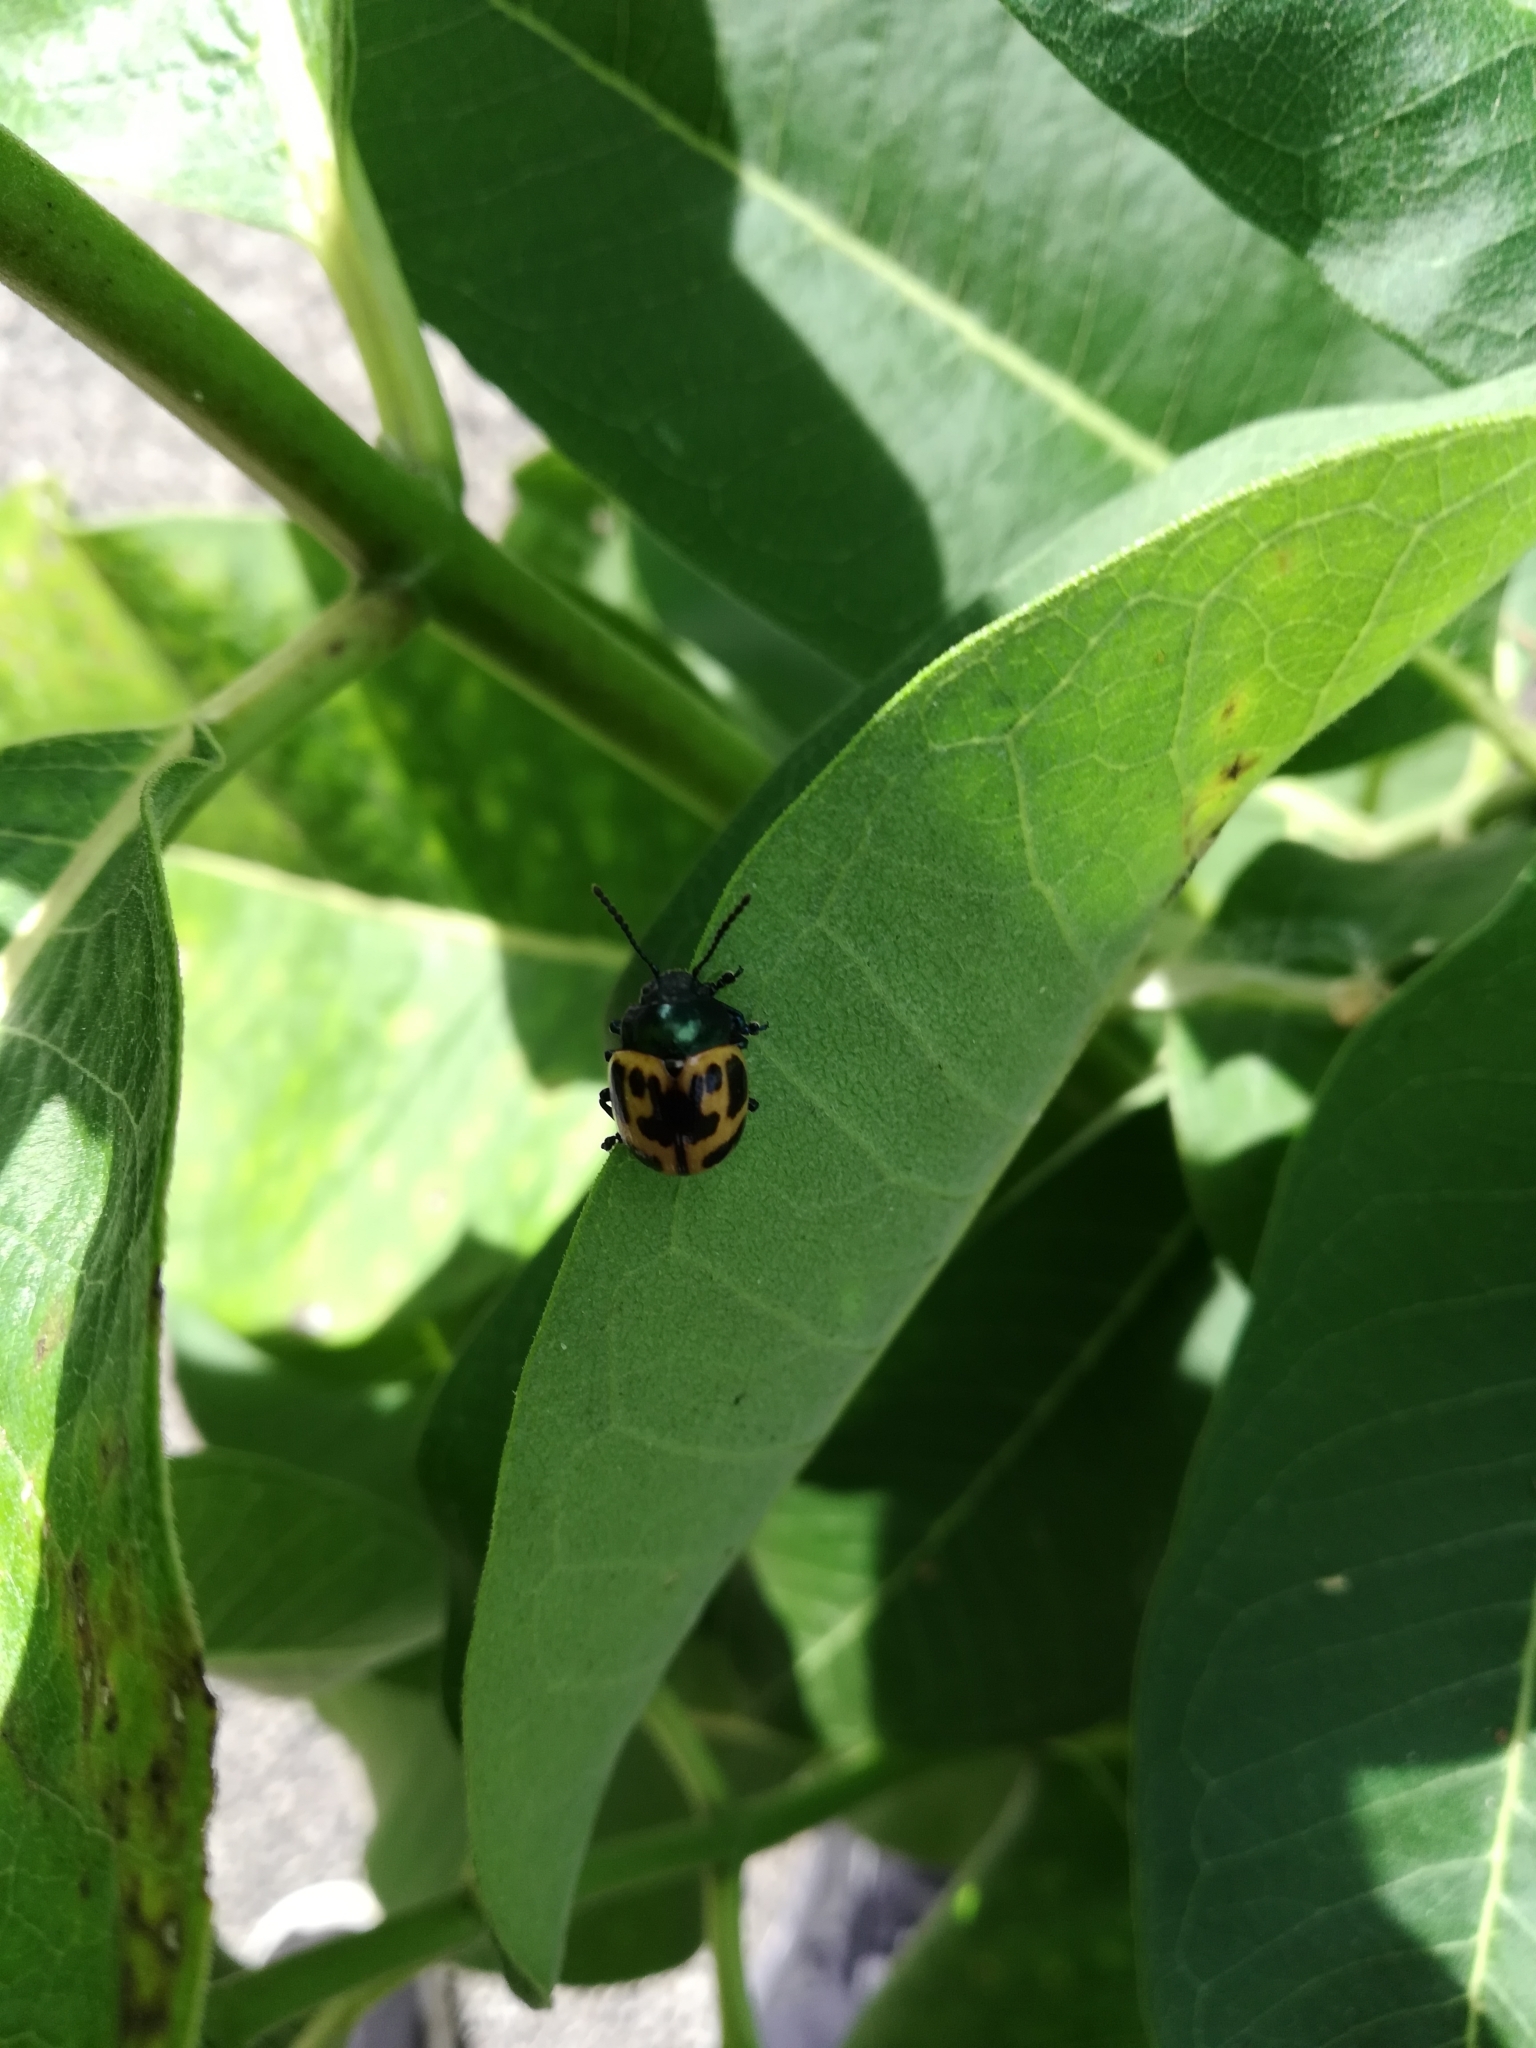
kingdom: Animalia
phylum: Arthropoda
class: Insecta
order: Coleoptera
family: Chrysomelidae
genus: Labidomera
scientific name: Labidomera clivicollis
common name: Swamp milkweed leaf beetle
